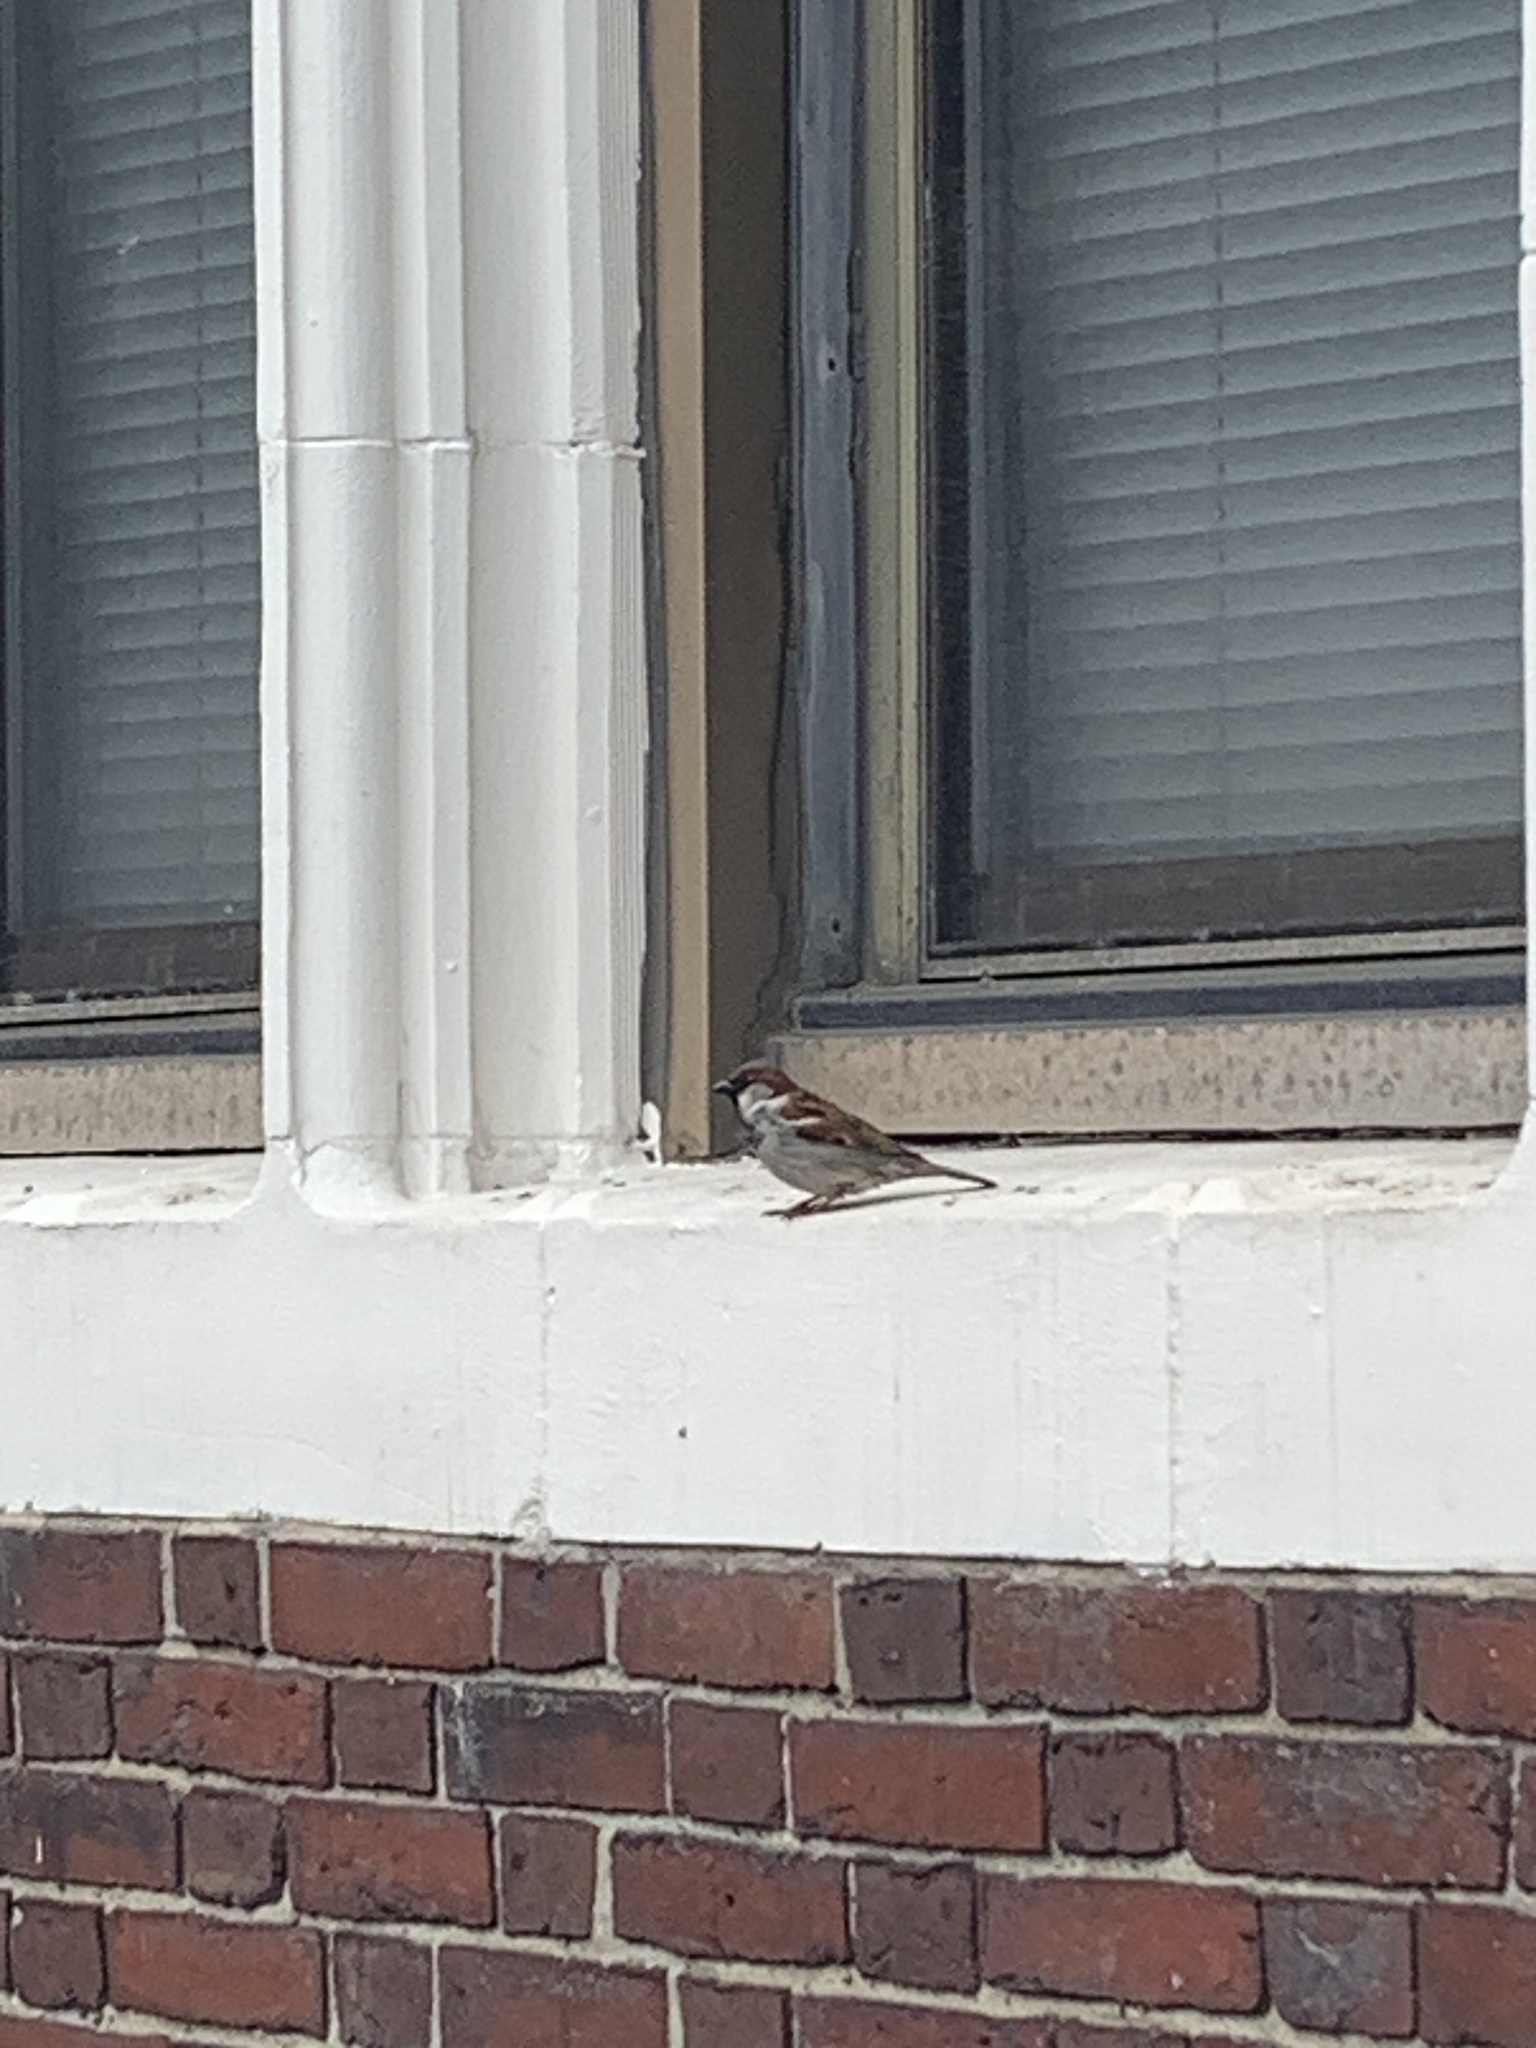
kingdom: Animalia
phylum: Chordata
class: Aves
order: Passeriformes
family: Passeridae
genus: Passer
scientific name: Passer domesticus
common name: House sparrow
